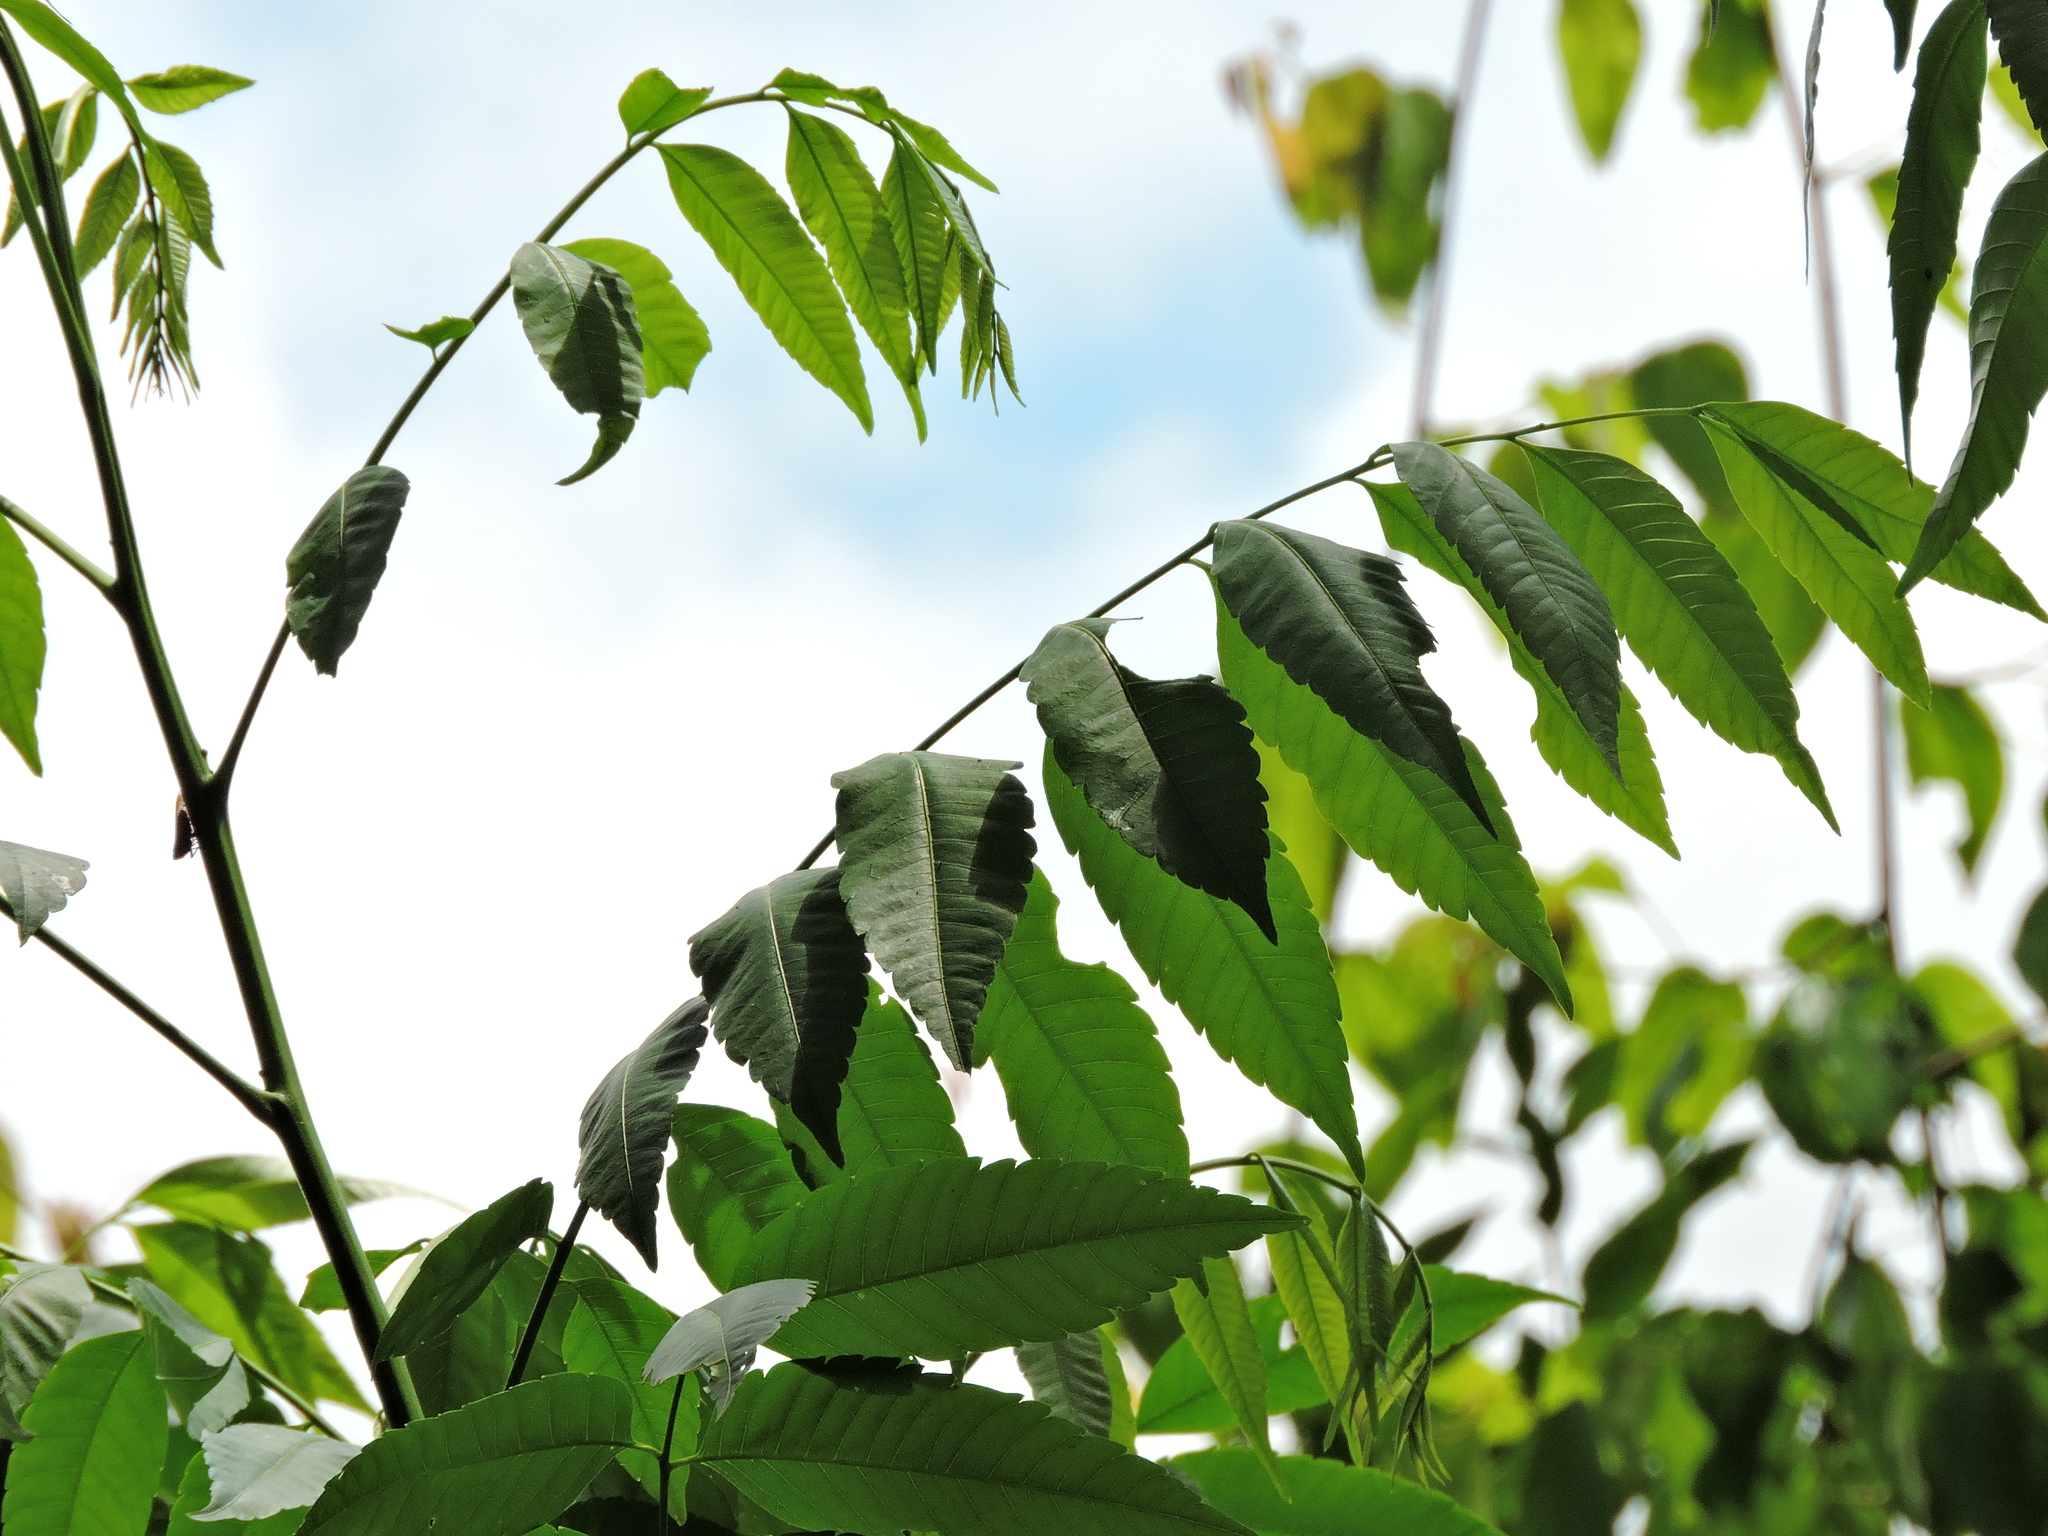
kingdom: Plantae
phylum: Tracheophyta
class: Magnoliopsida
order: Sapindales
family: Sapindaceae
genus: Eurycorymbus
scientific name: Eurycorymbus cavaleriei
